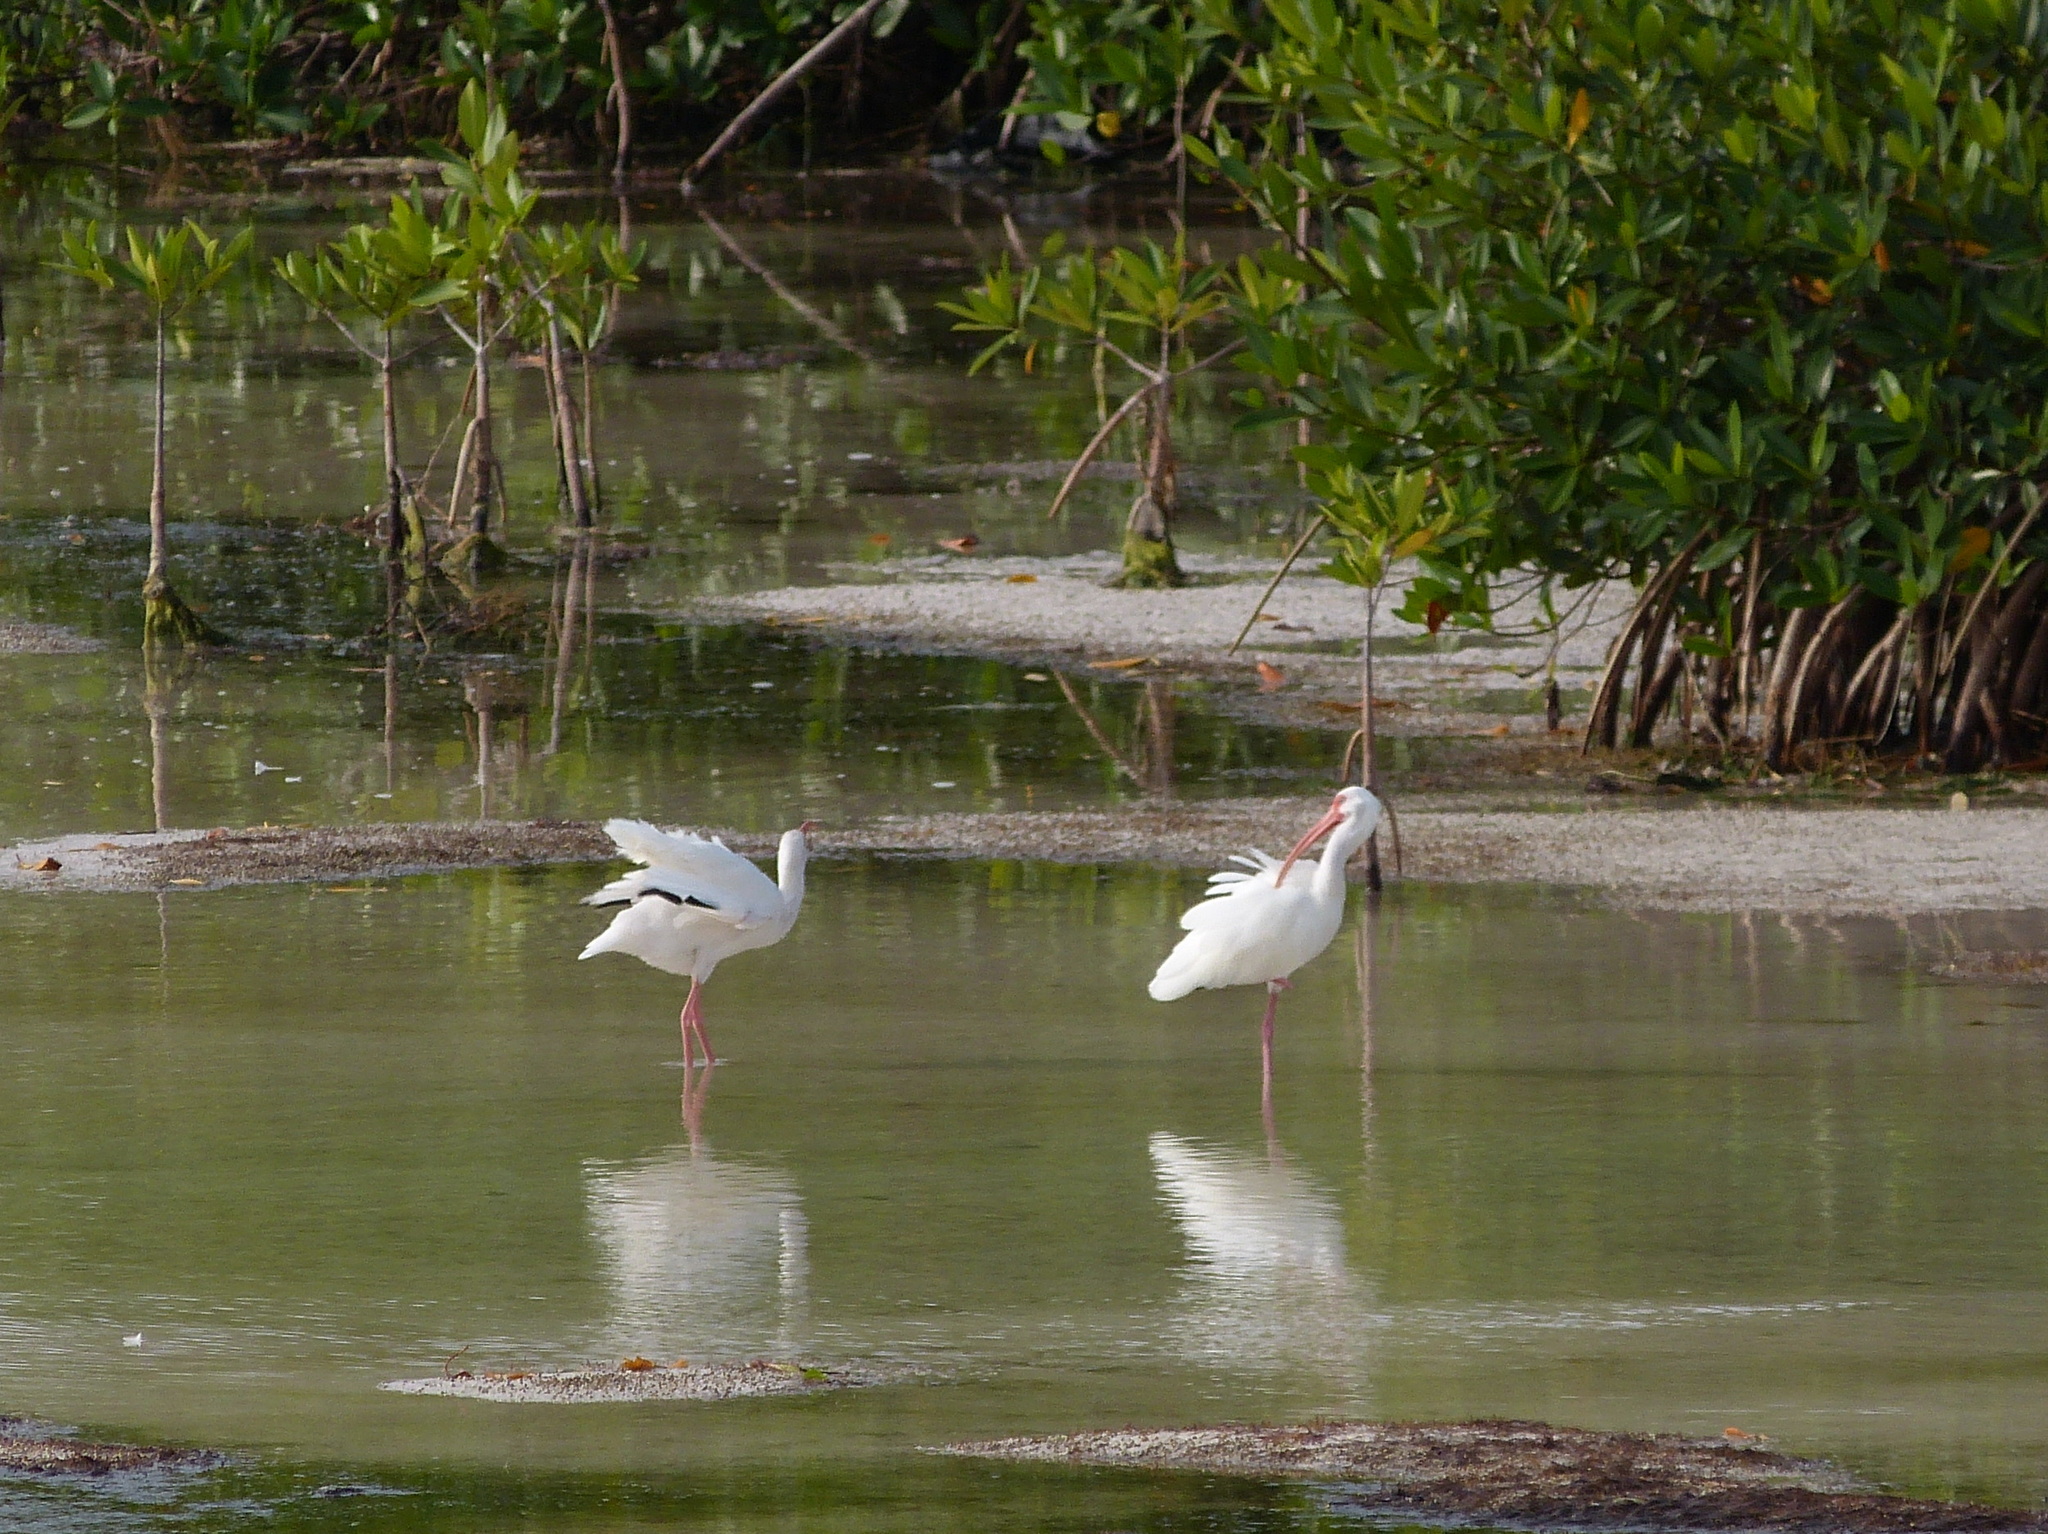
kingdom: Animalia
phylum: Chordata
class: Aves
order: Pelecaniformes
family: Threskiornithidae
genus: Eudocimus
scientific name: Eudocimus albus
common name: White ibis
